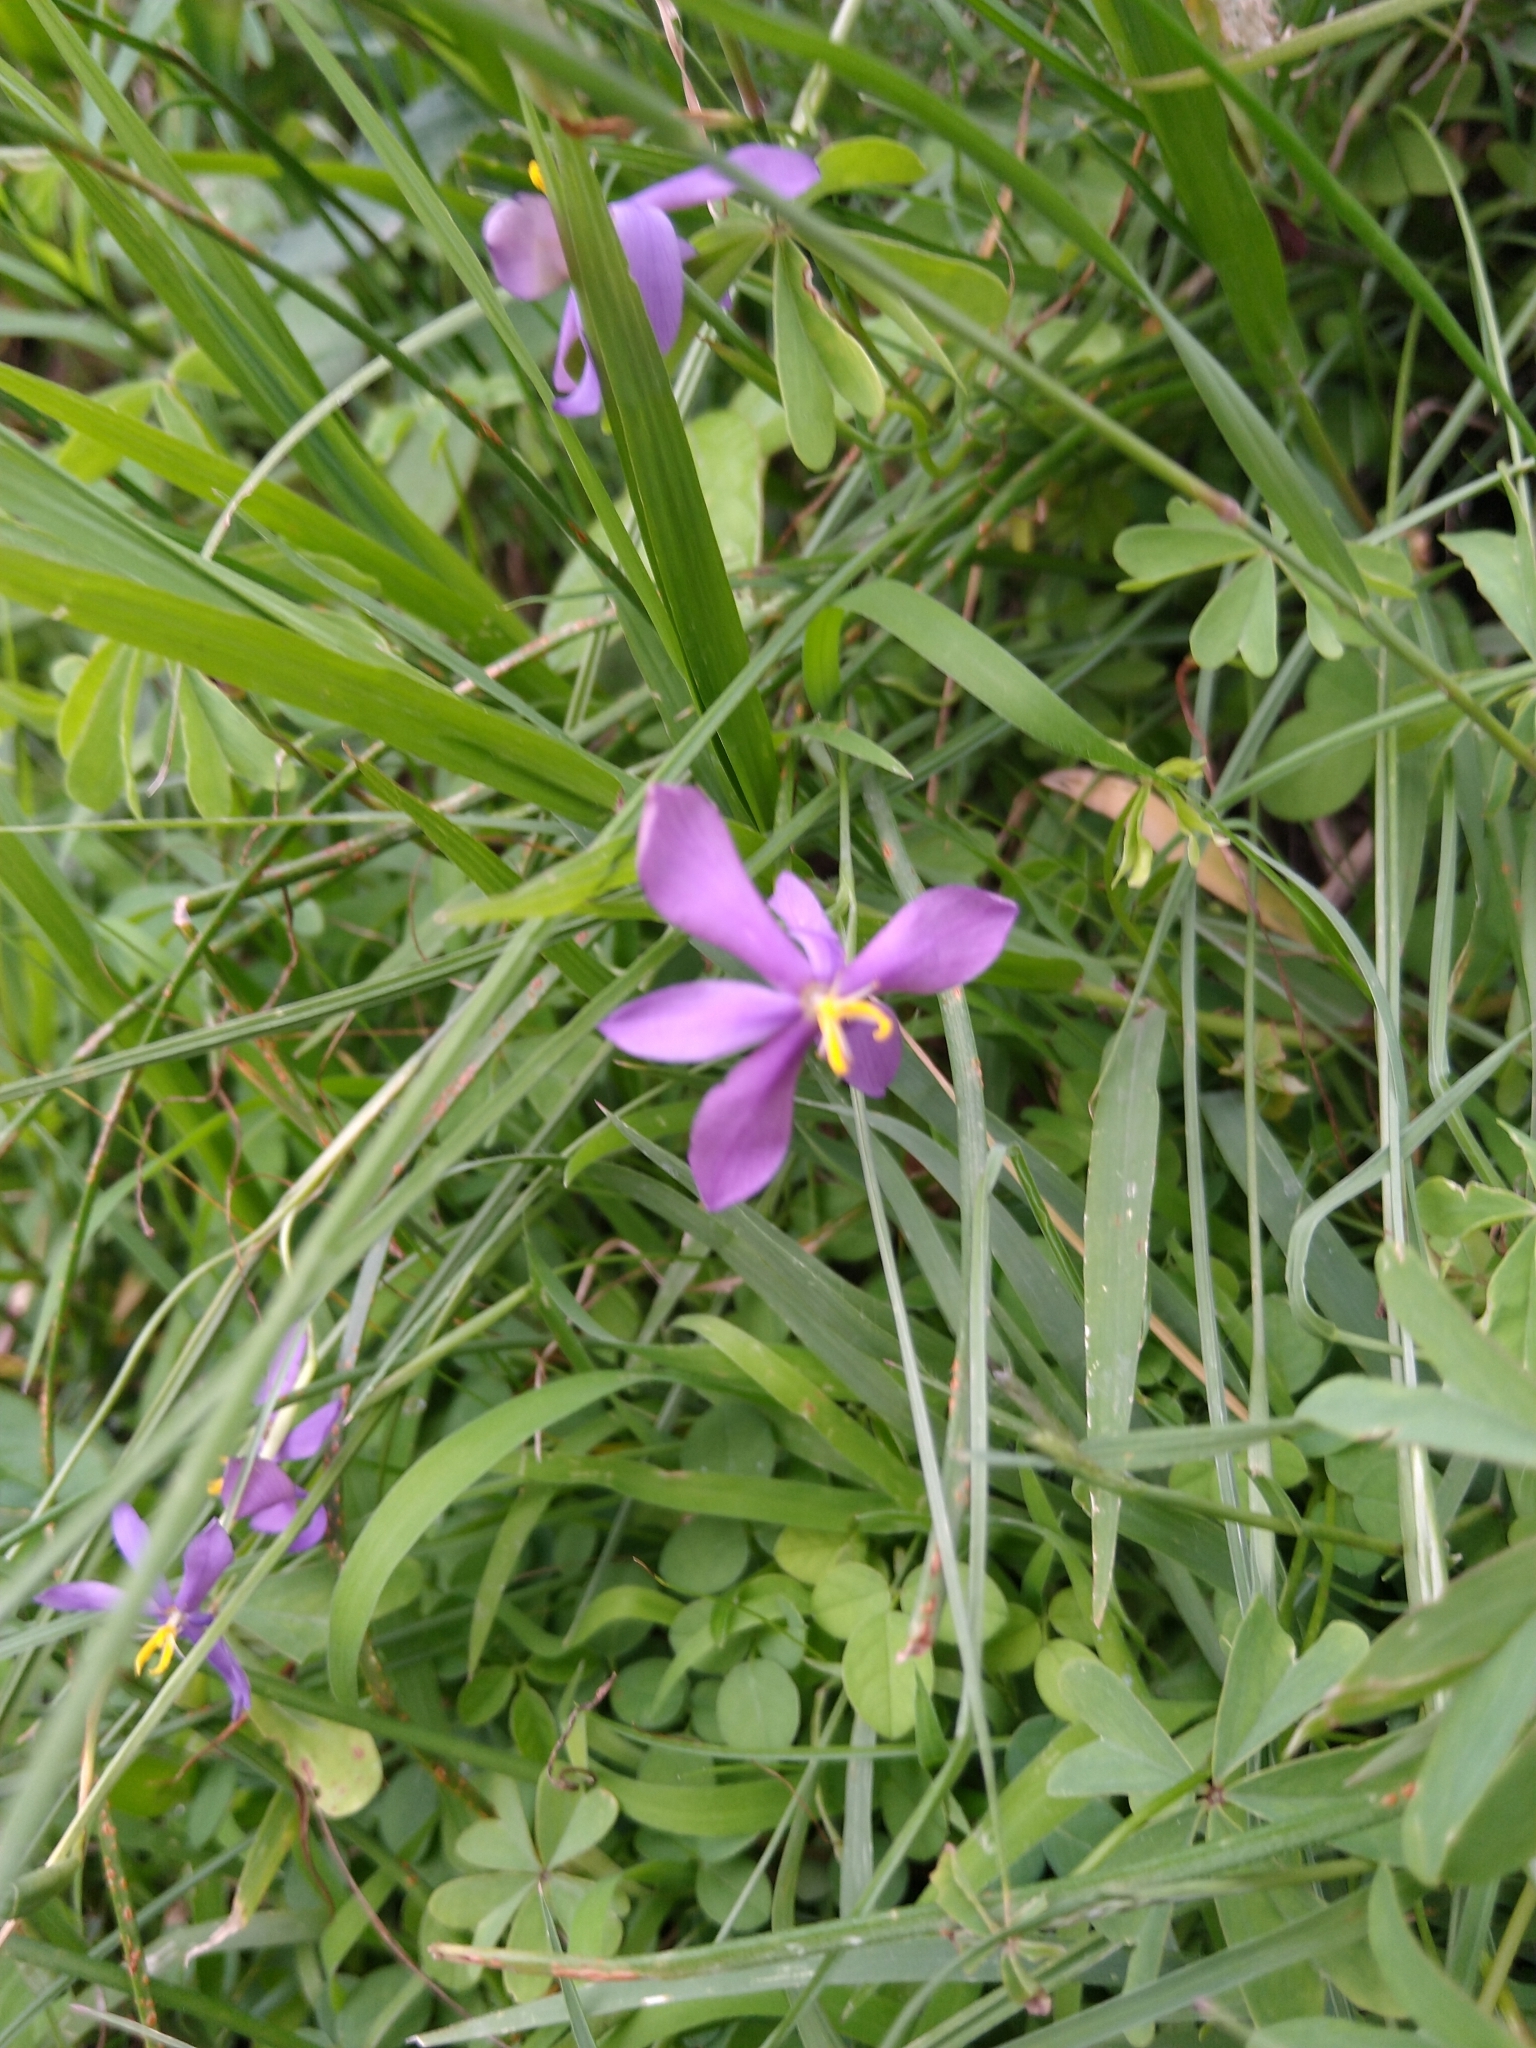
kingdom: Plantae
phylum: Tracheophyta
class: Liliopsida
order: Asparagales
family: Iridaceae
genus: Nemastylis
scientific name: Nemastylis tenuis
